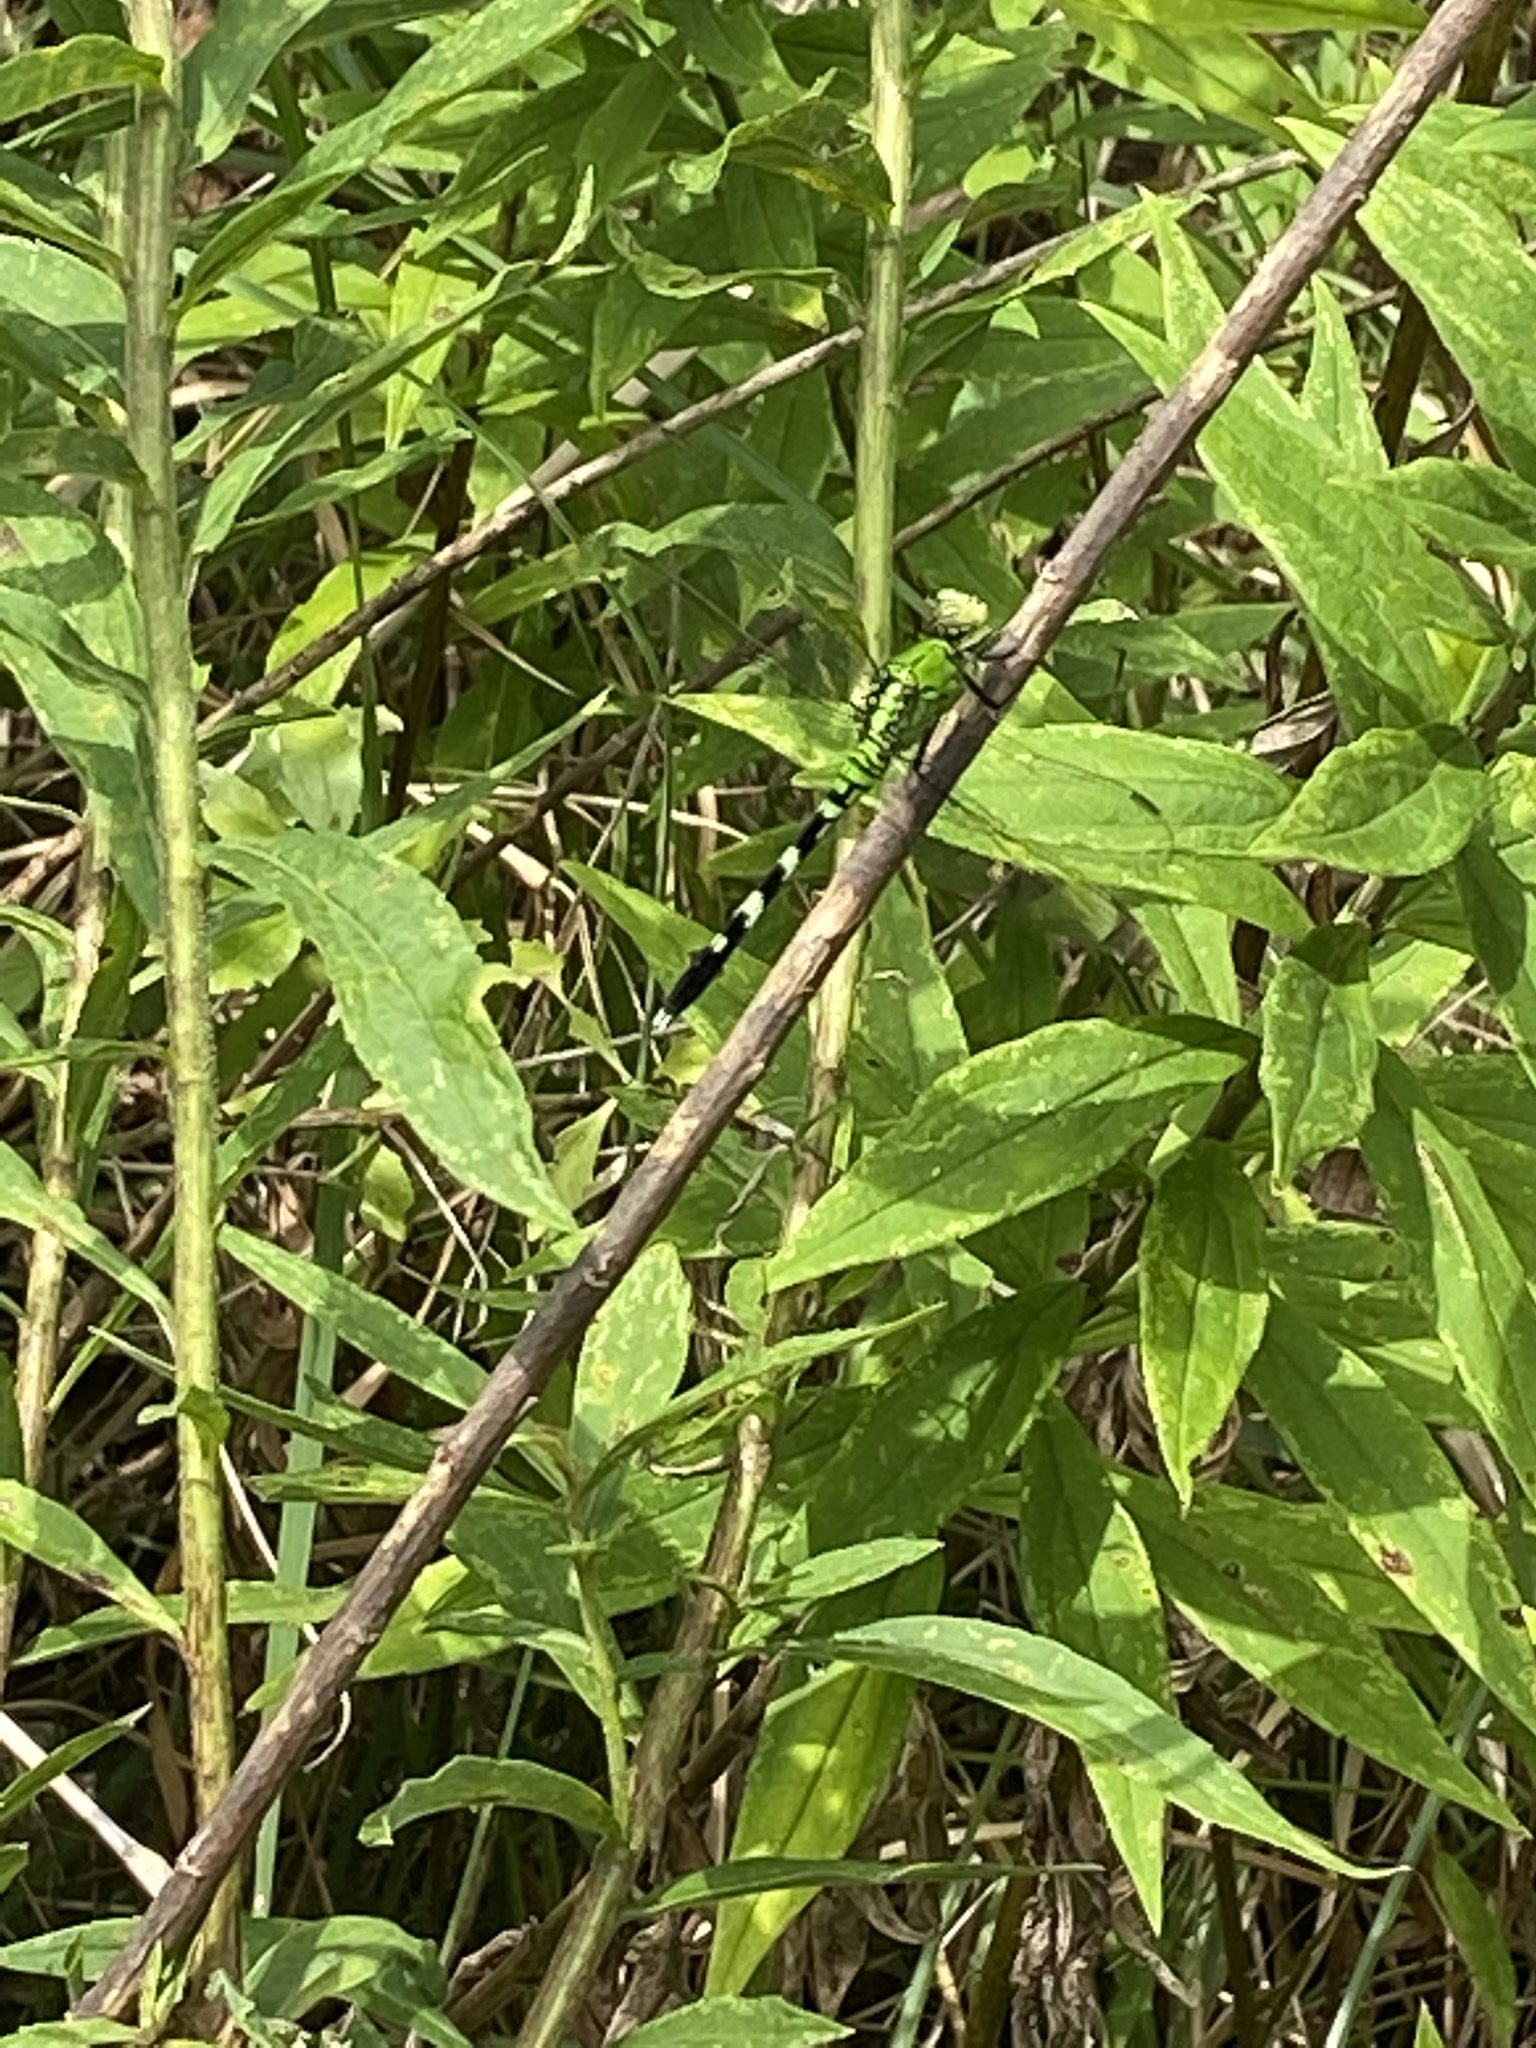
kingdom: Animalia
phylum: Arthropoda
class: Insecta
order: Odonata
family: Libellulidae
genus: Erythemis
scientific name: Erythemis simplicicollis
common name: Eastern pondhawk
